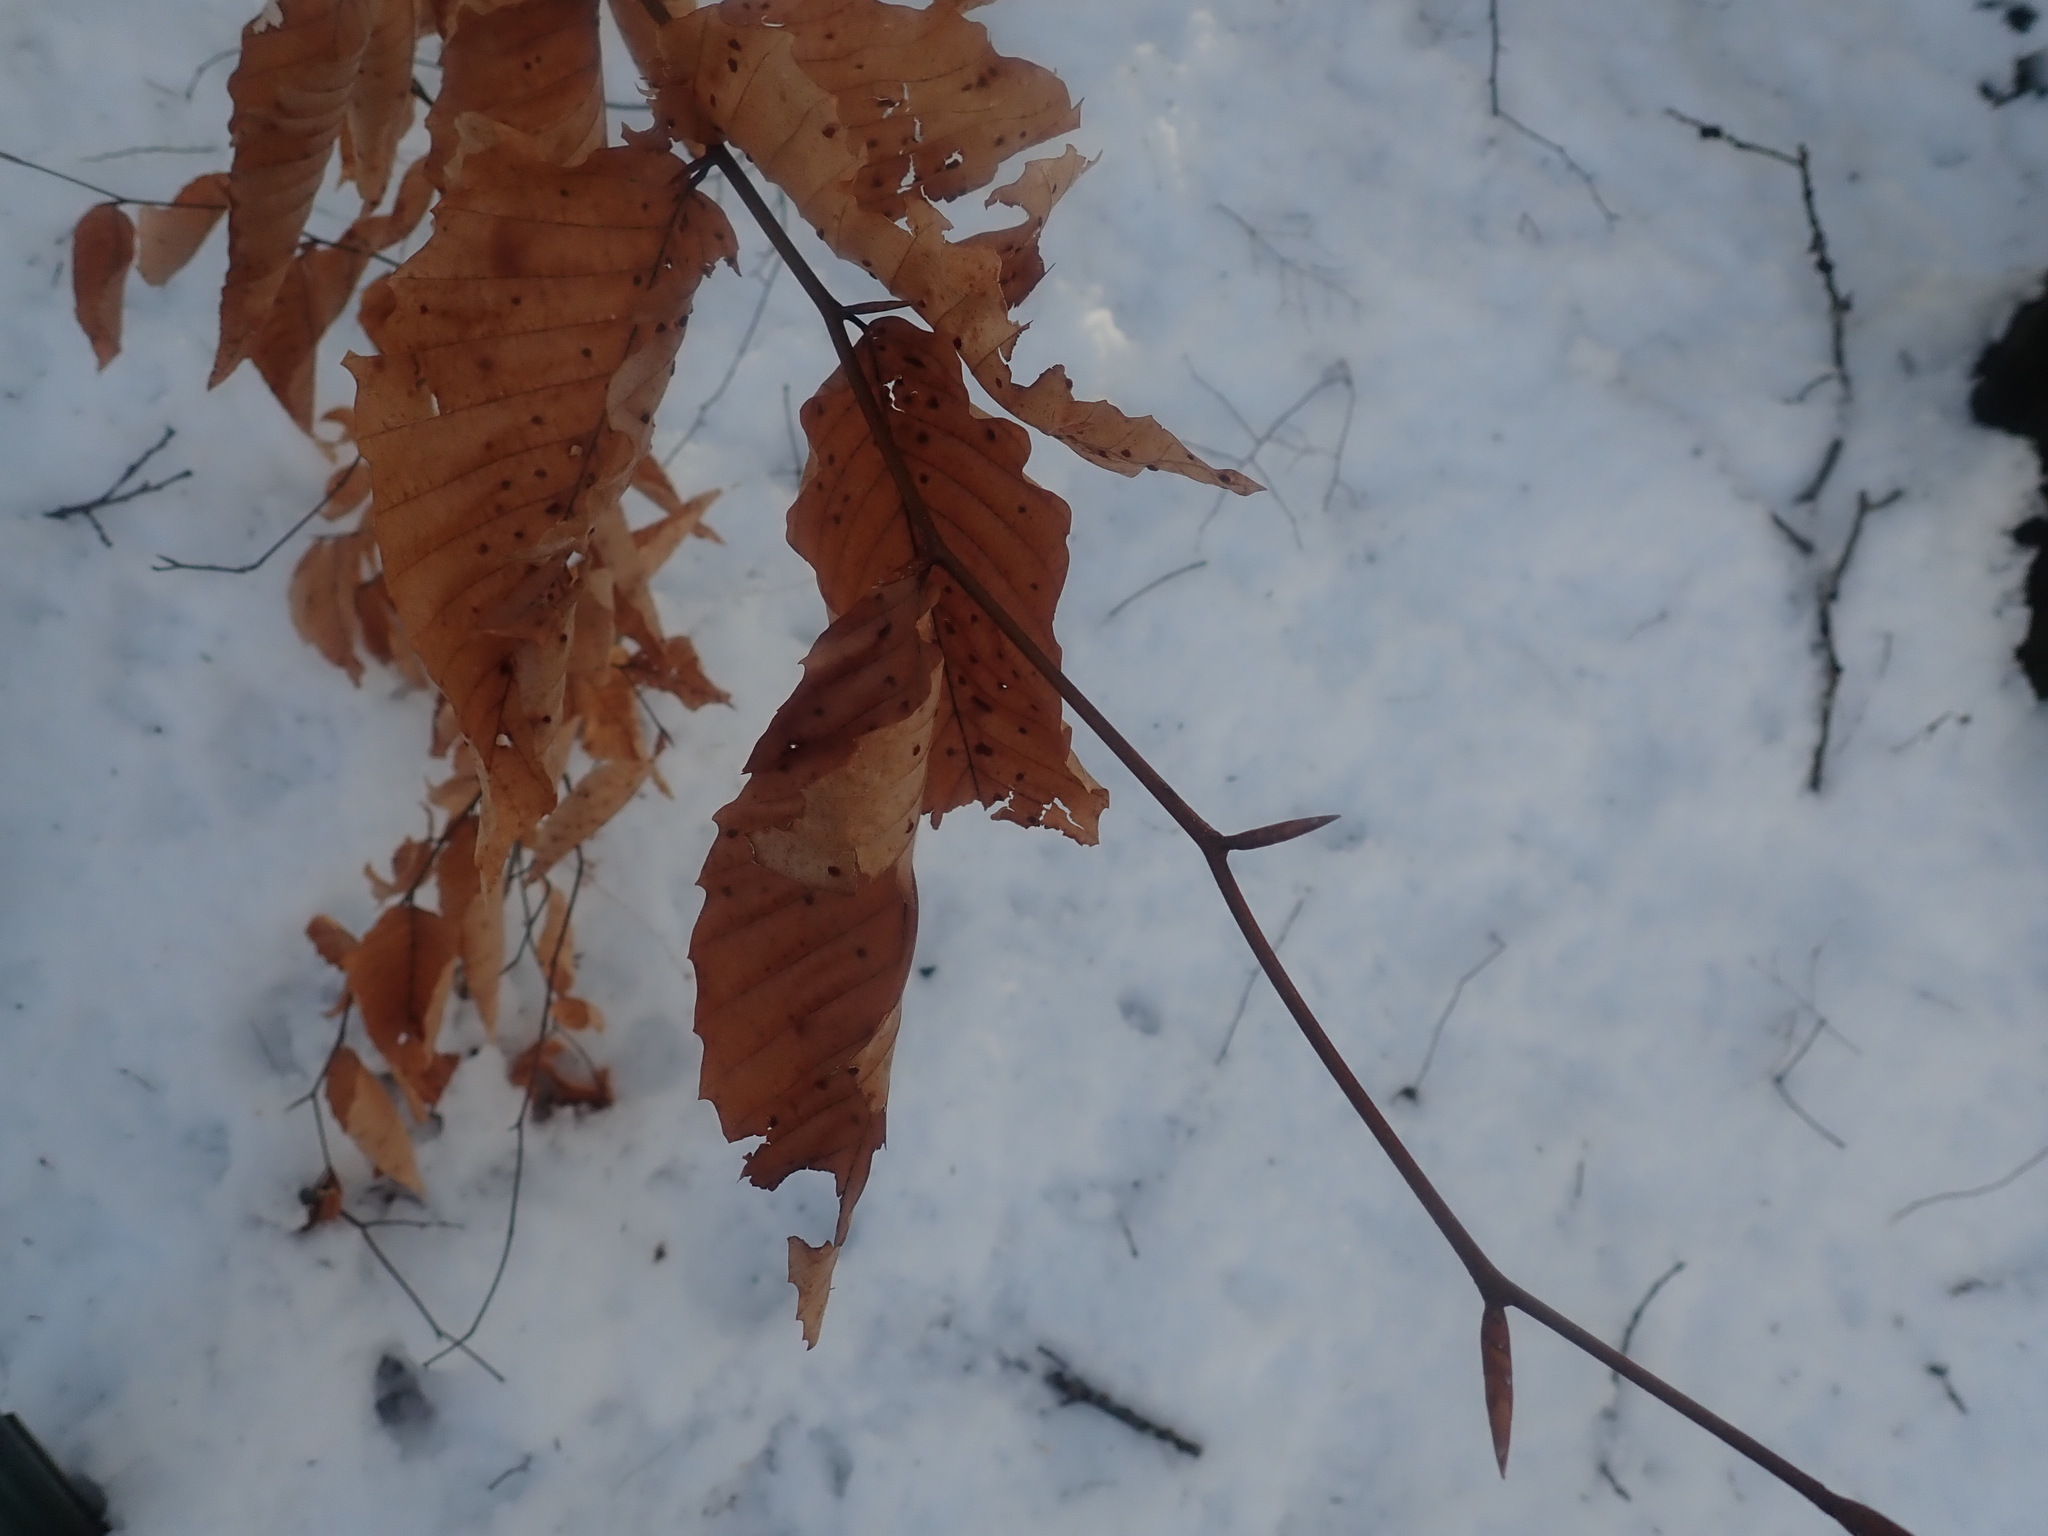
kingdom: Plantae
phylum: Tracheophyta
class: Magnoliopsida
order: Fagales
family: Fagaceae
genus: Fagus
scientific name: Fagus grandifolia
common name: American beech
